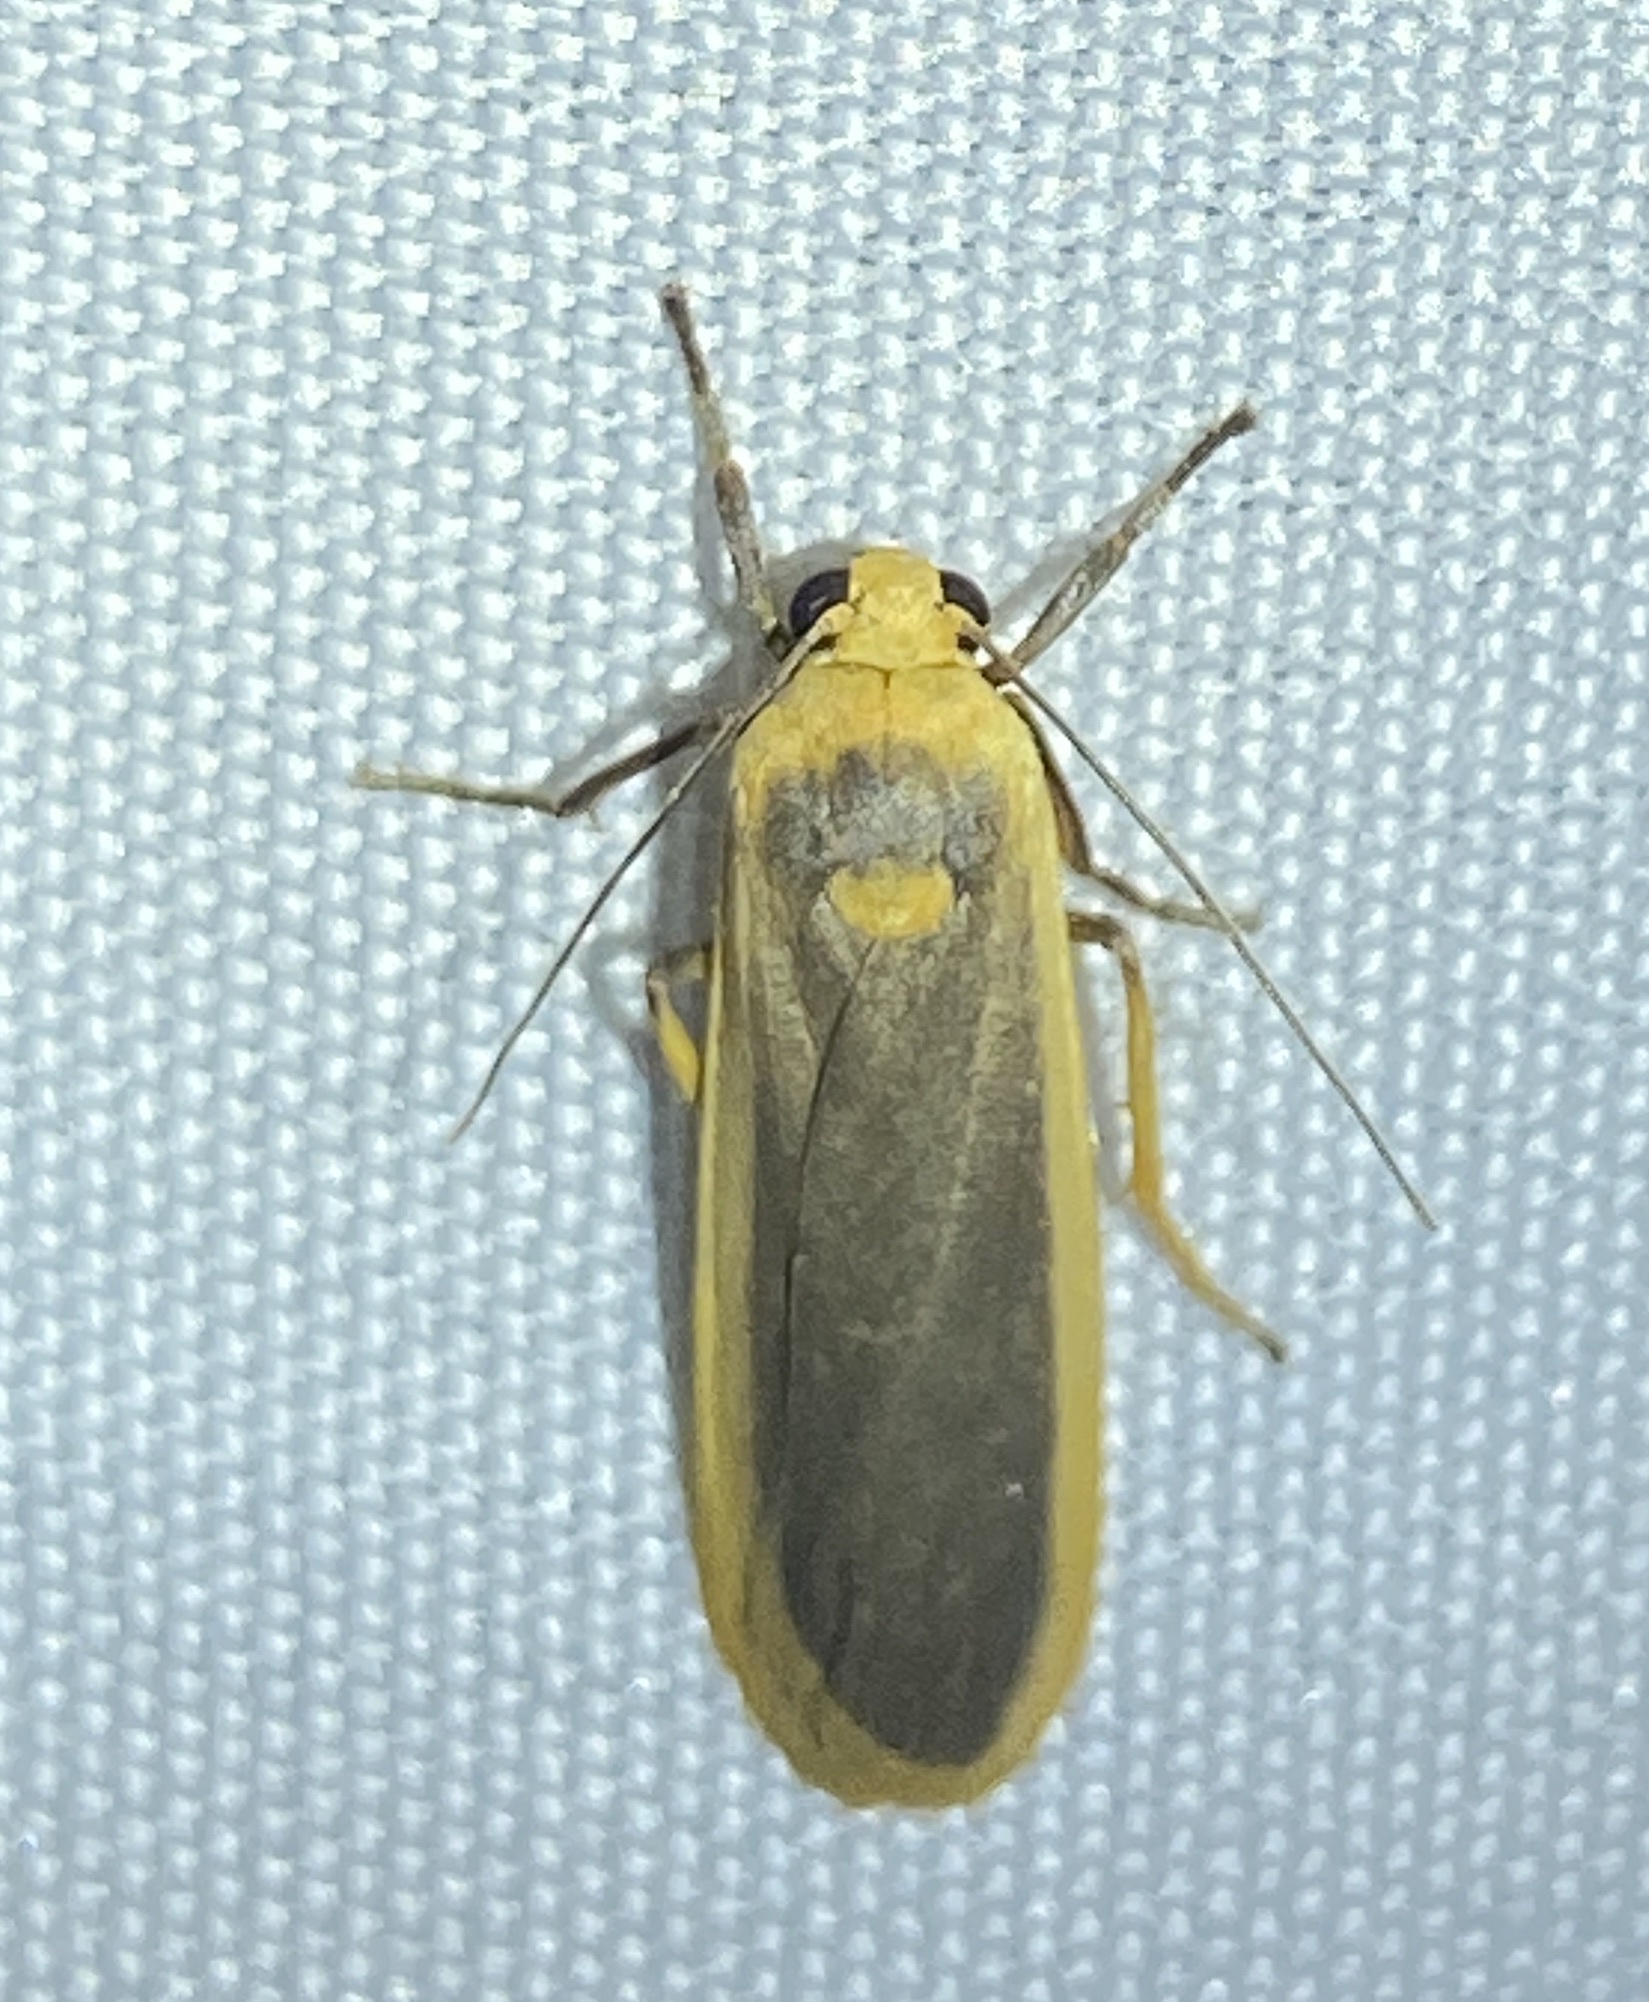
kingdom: Animalia
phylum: Arthropoda
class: Insecta
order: Lepidoptera
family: Erebidae
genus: Brunia
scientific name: Brunia dorsalis
